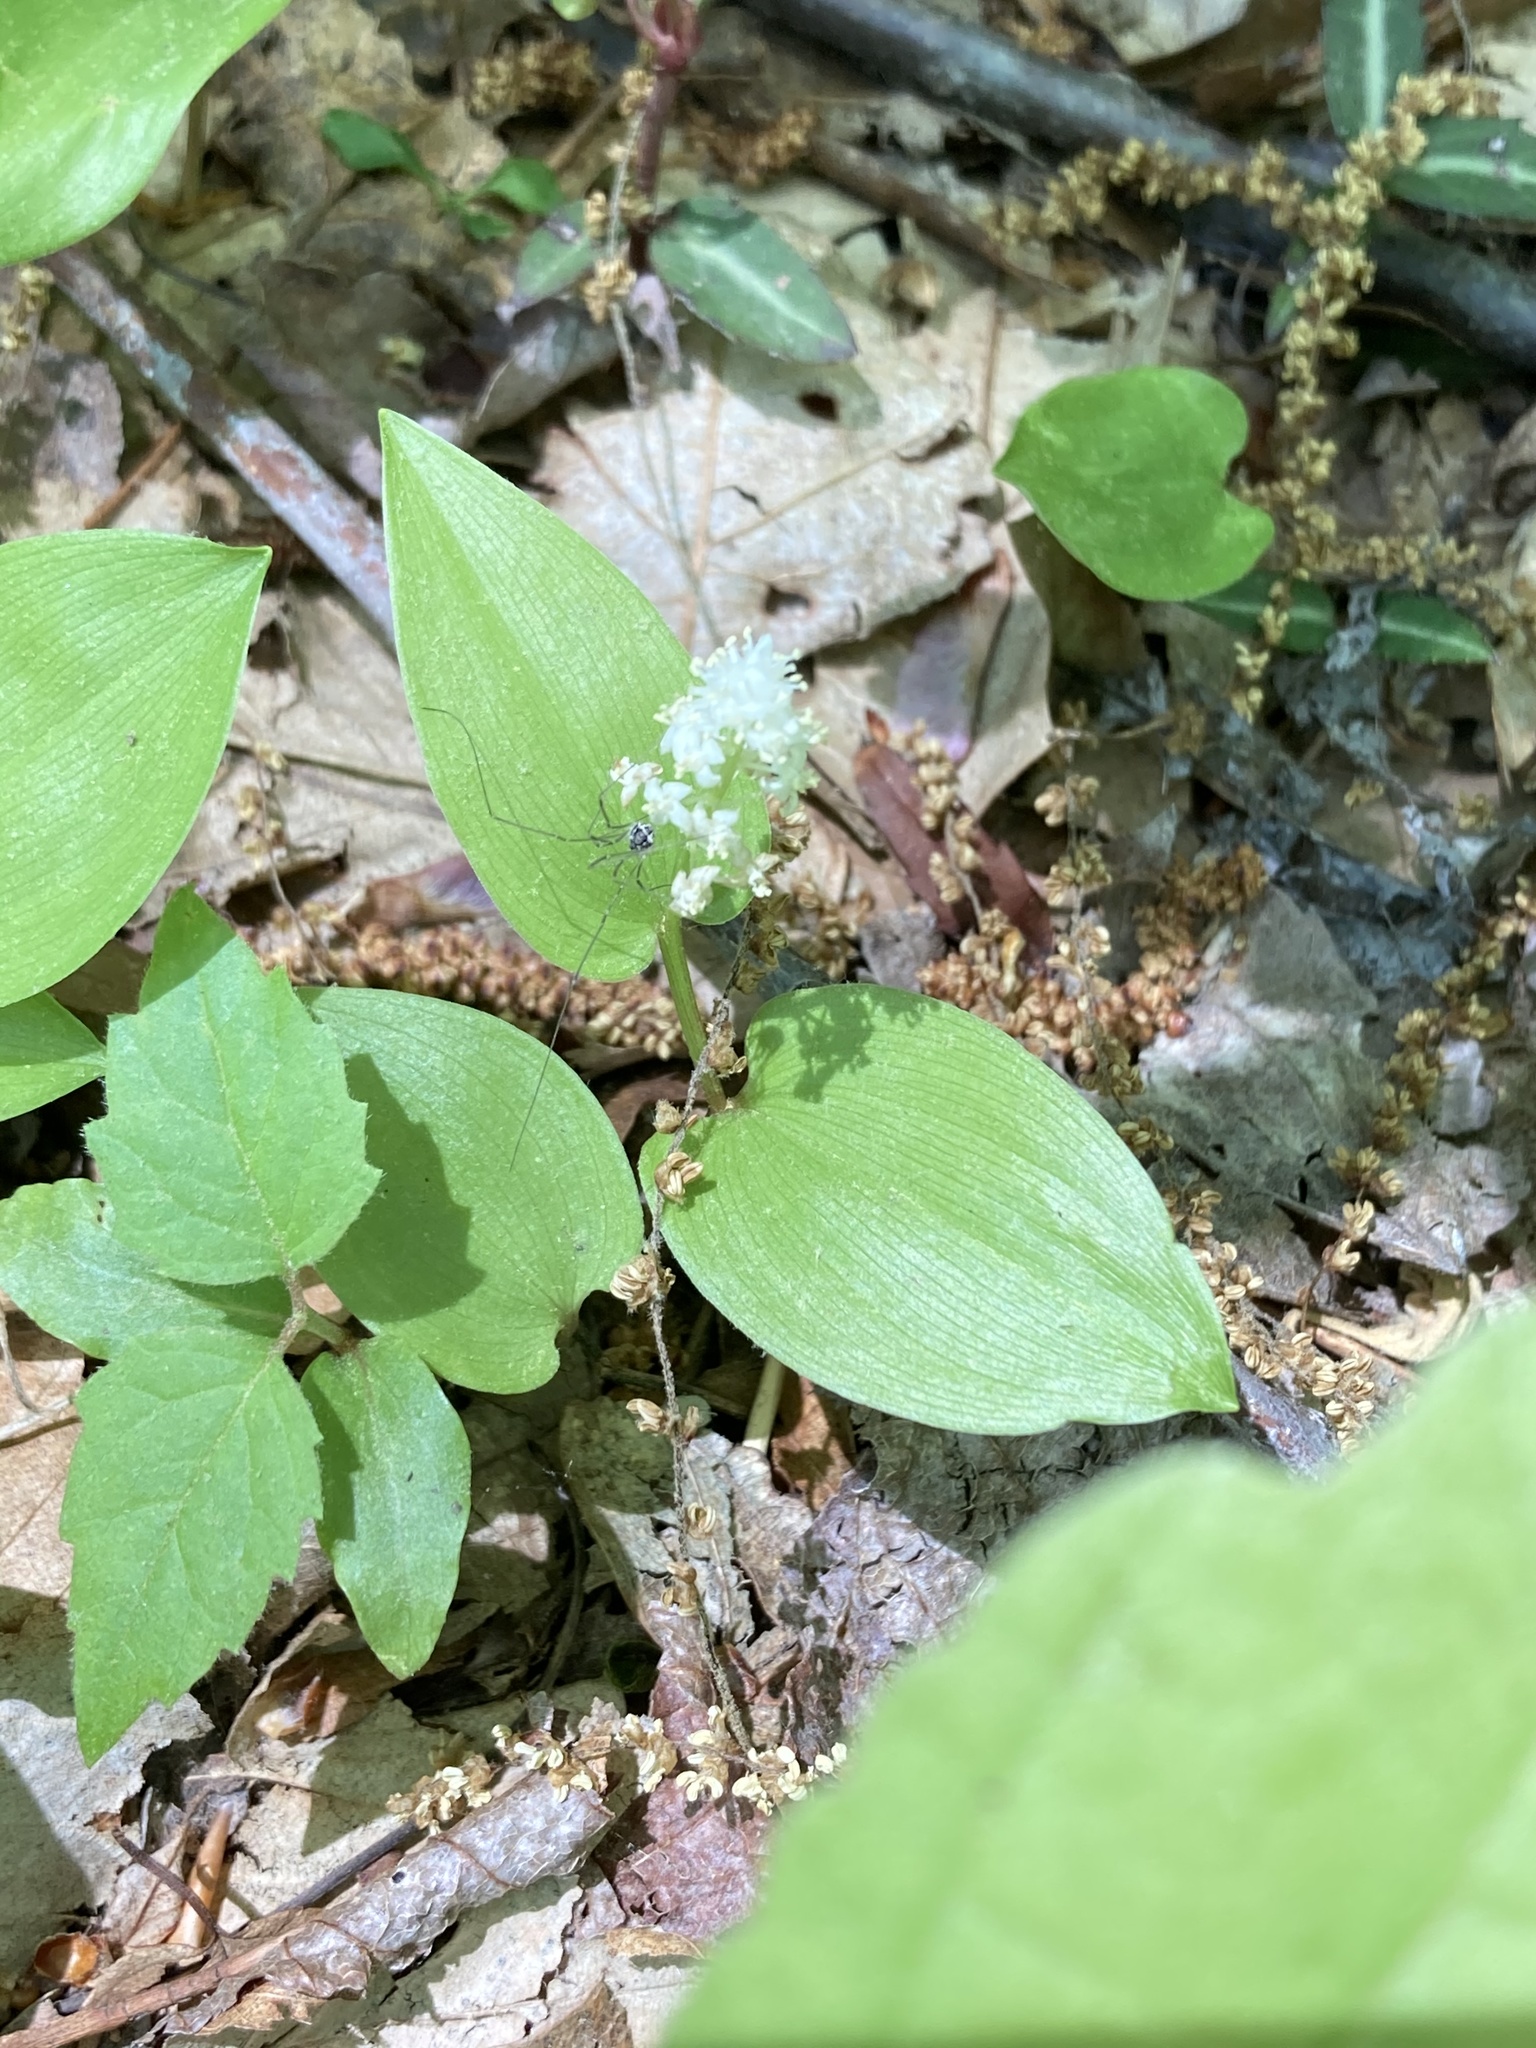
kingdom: Plantae
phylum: Tracheophyta
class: Liliopsida
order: Asparagales
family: Asparagaceae
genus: Maianthemum
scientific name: Maianthemum canadense
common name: False lily-of-the-valley
